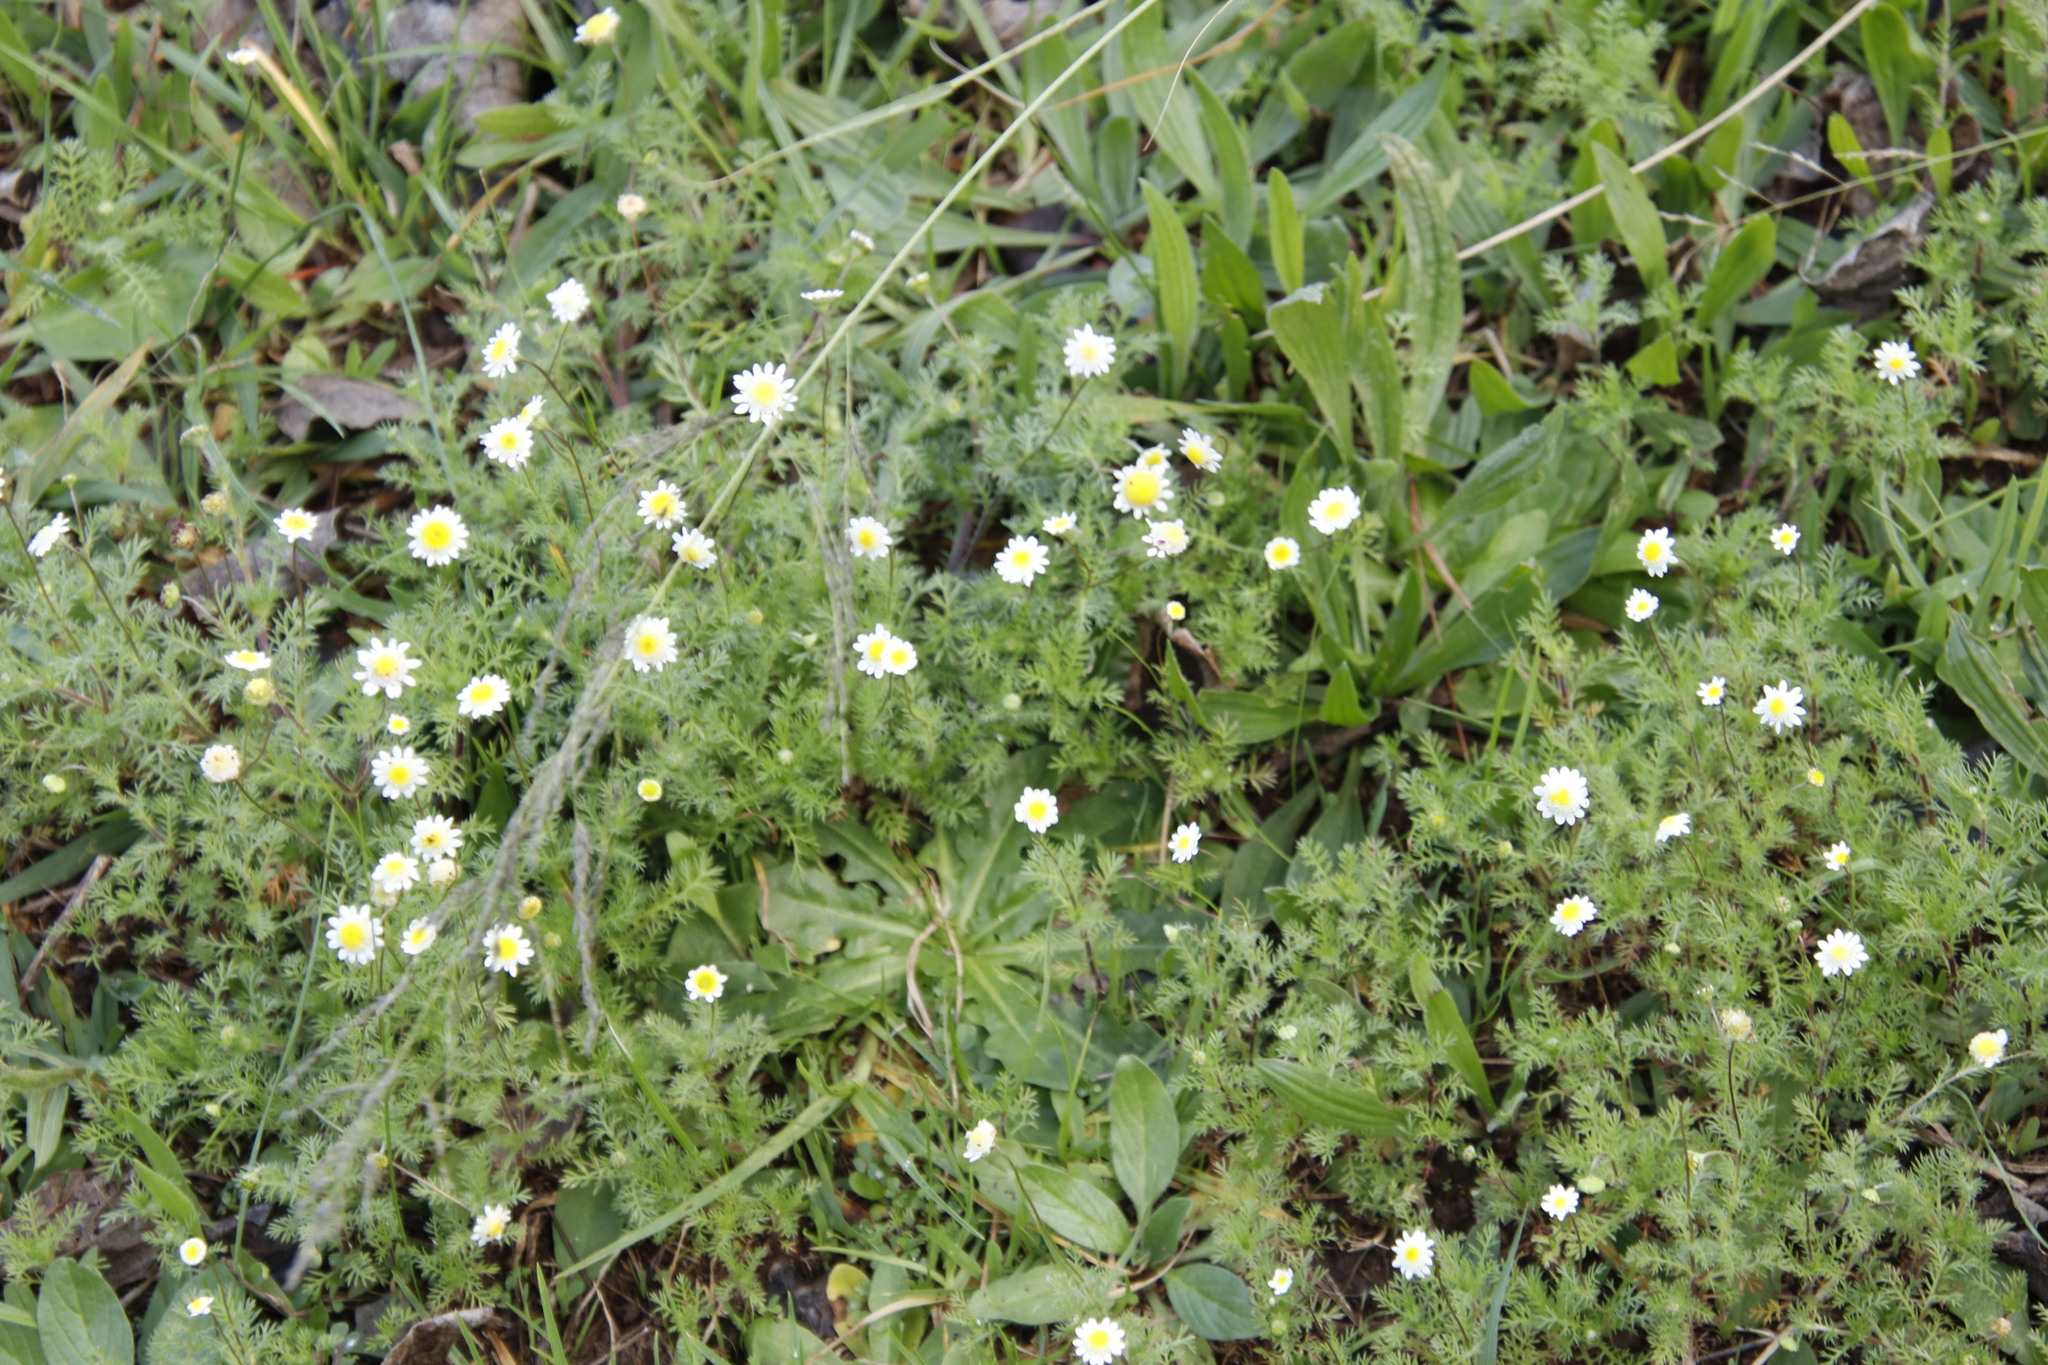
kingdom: Plantae
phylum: Tracheophyta
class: Magnoliopsida
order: Asterales
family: Asteraceae
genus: Cotula
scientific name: Cotula turbinata
